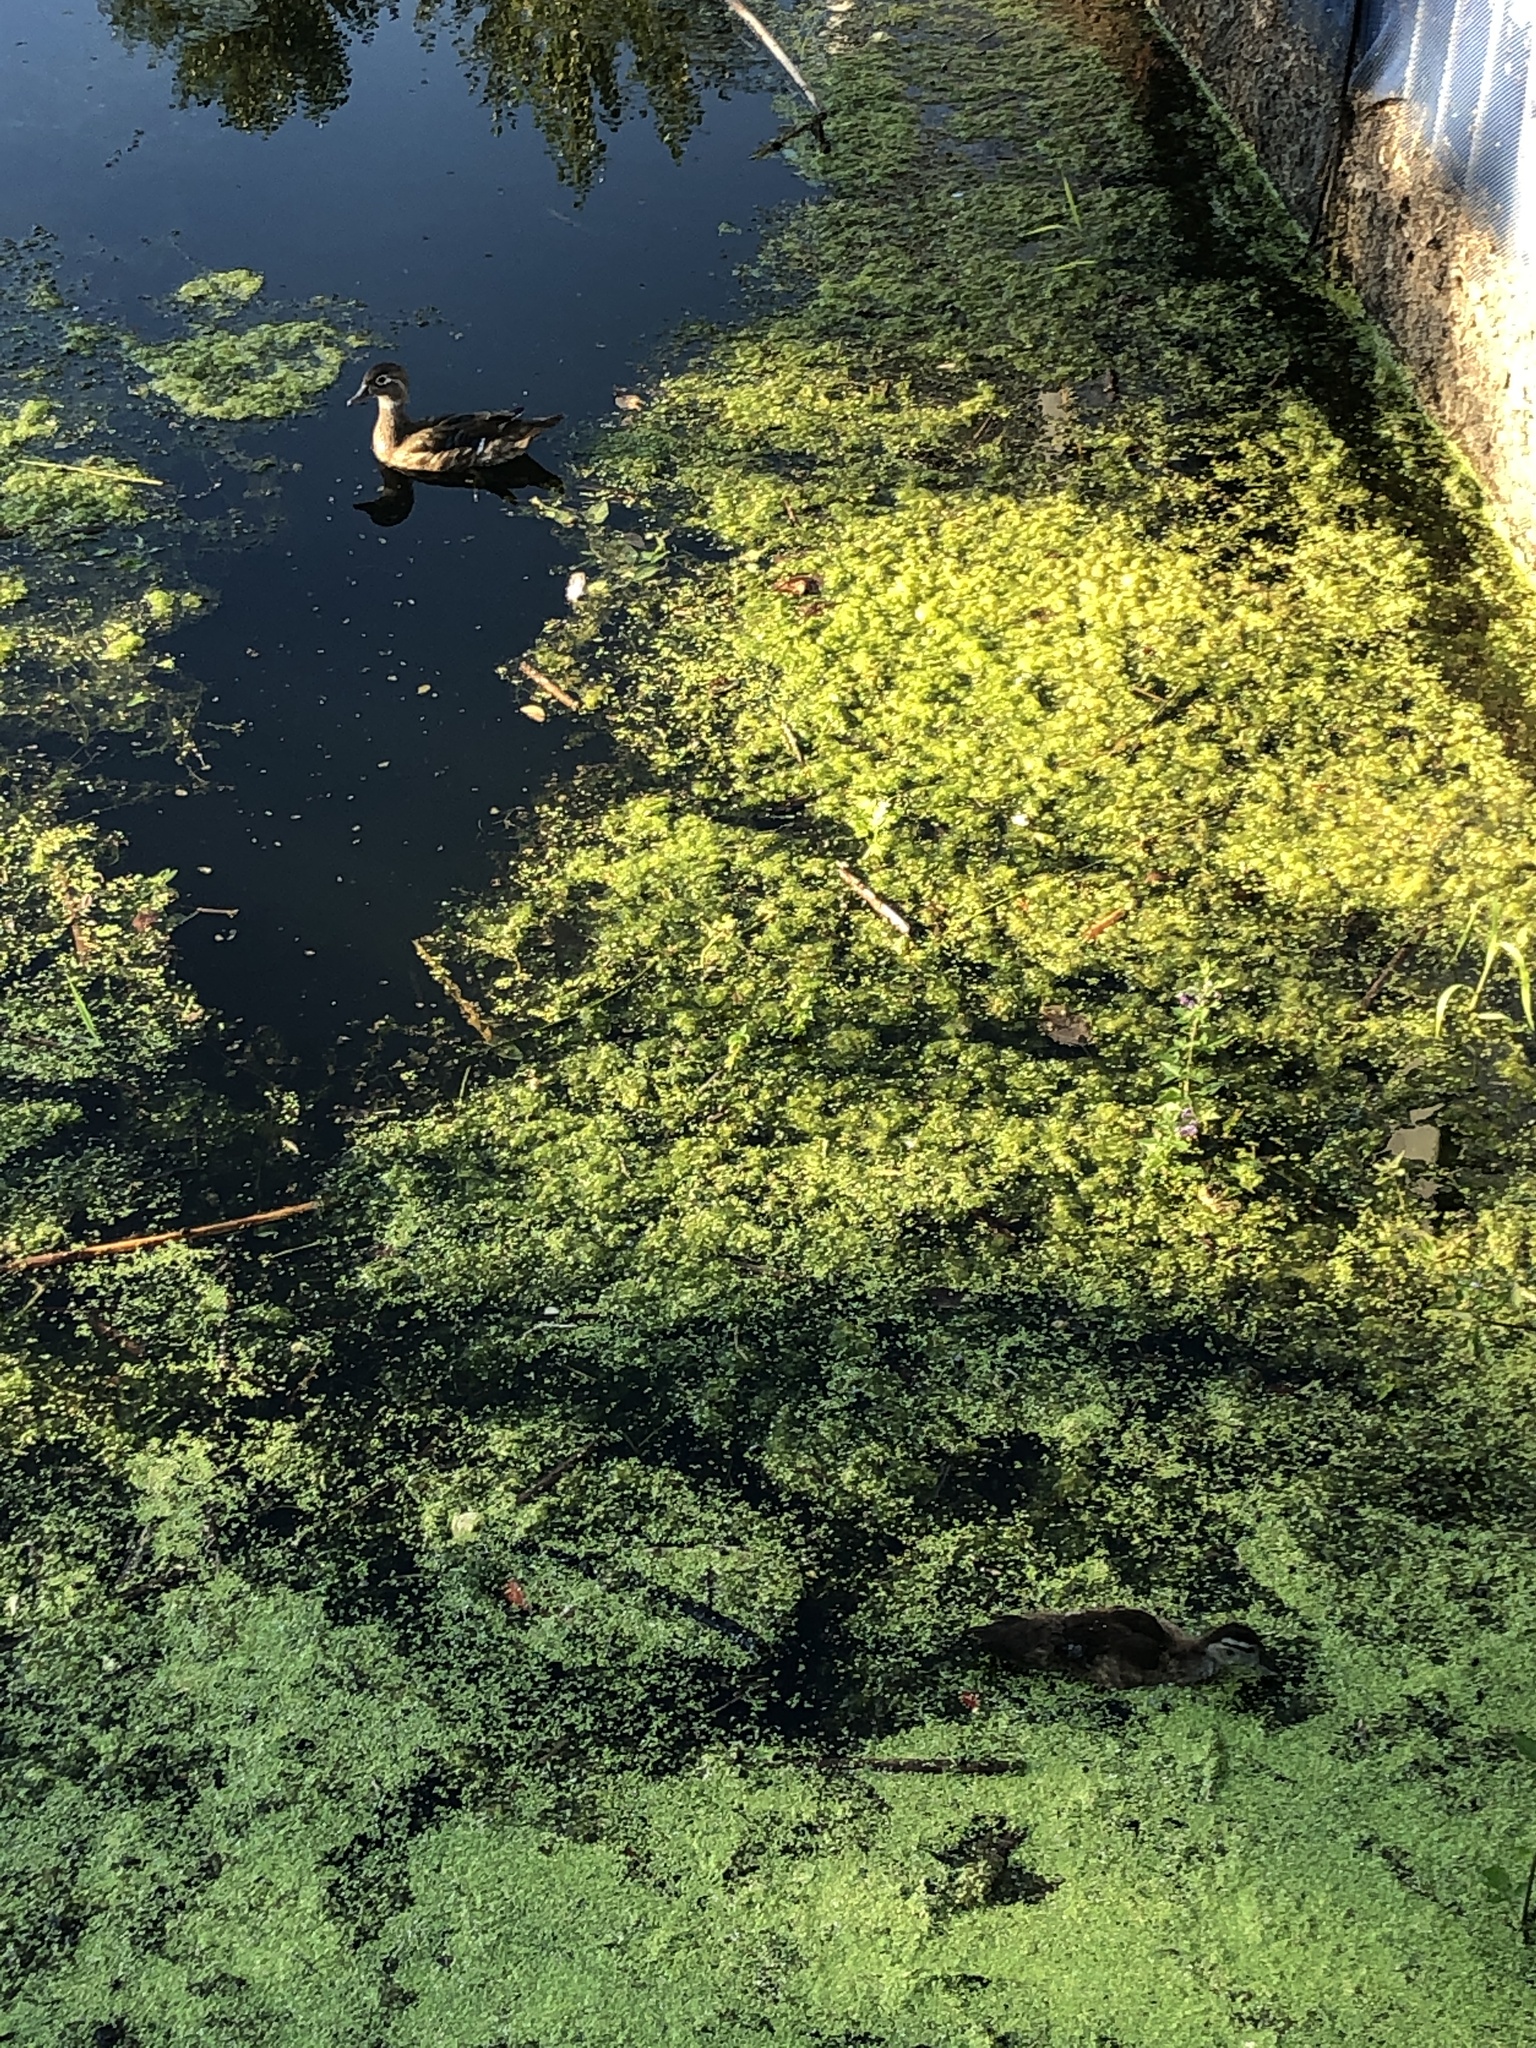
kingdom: Animalia
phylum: Chordata
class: Aves
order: Anseriformes
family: Anatidae
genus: Aix
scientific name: Aix sponsa
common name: Wood duck
